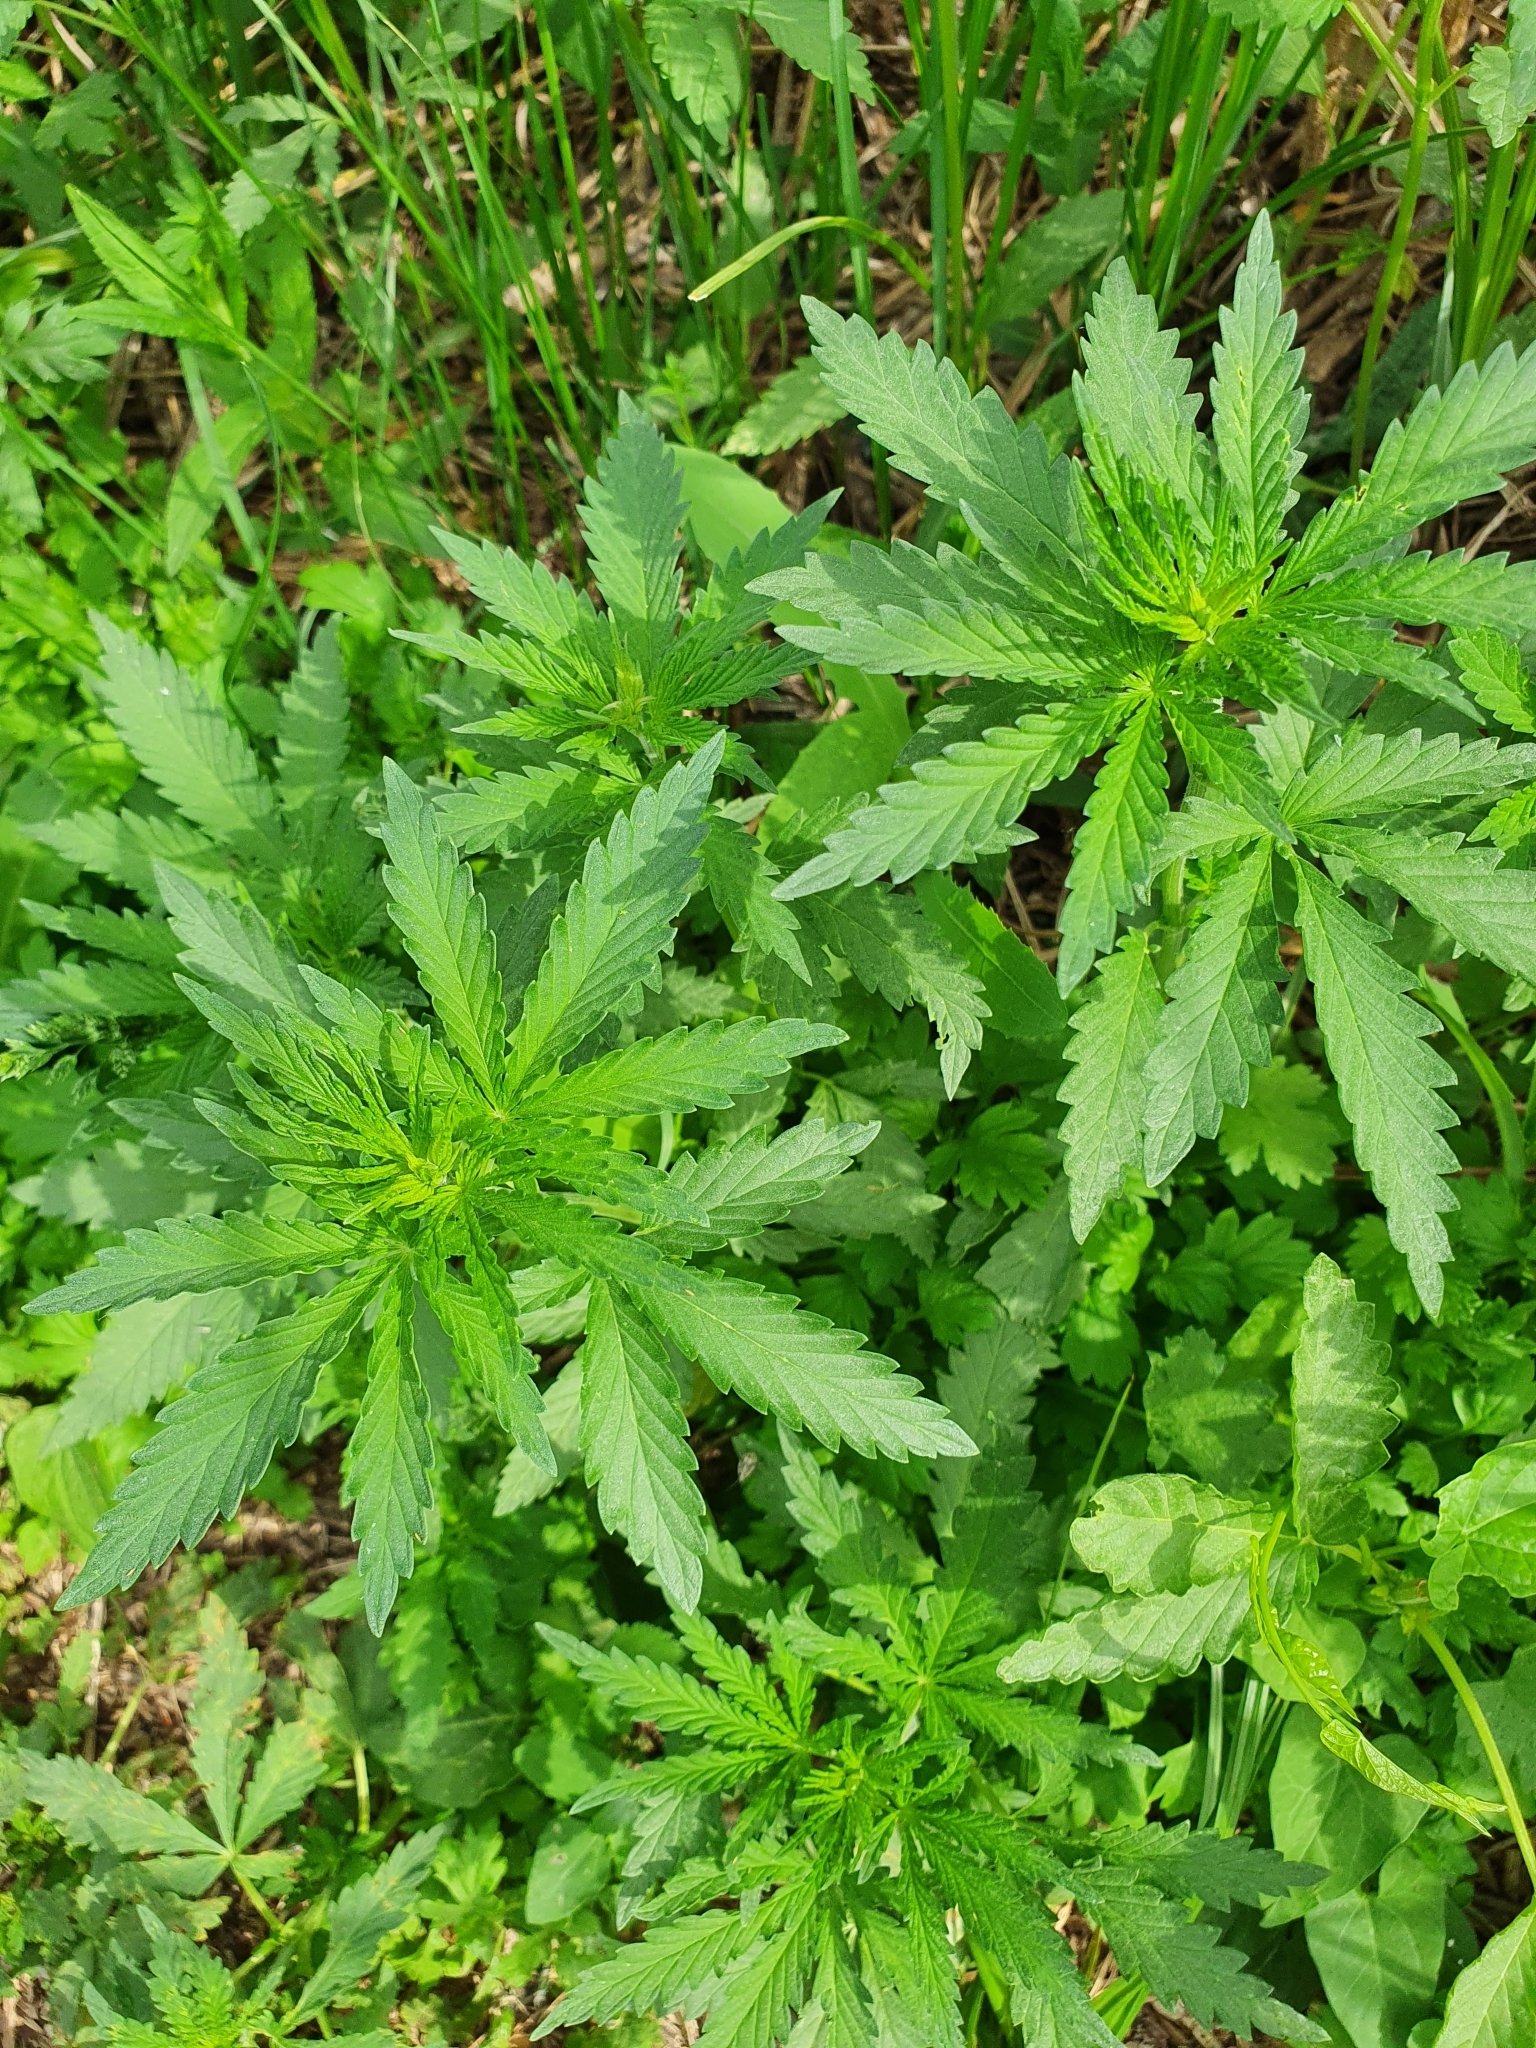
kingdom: Plantae
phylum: Tracheophyta
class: Magnoliopsida
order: Rosales
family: Cannabaceae
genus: Cannabis
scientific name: Cannabis sativa
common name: Hemp
